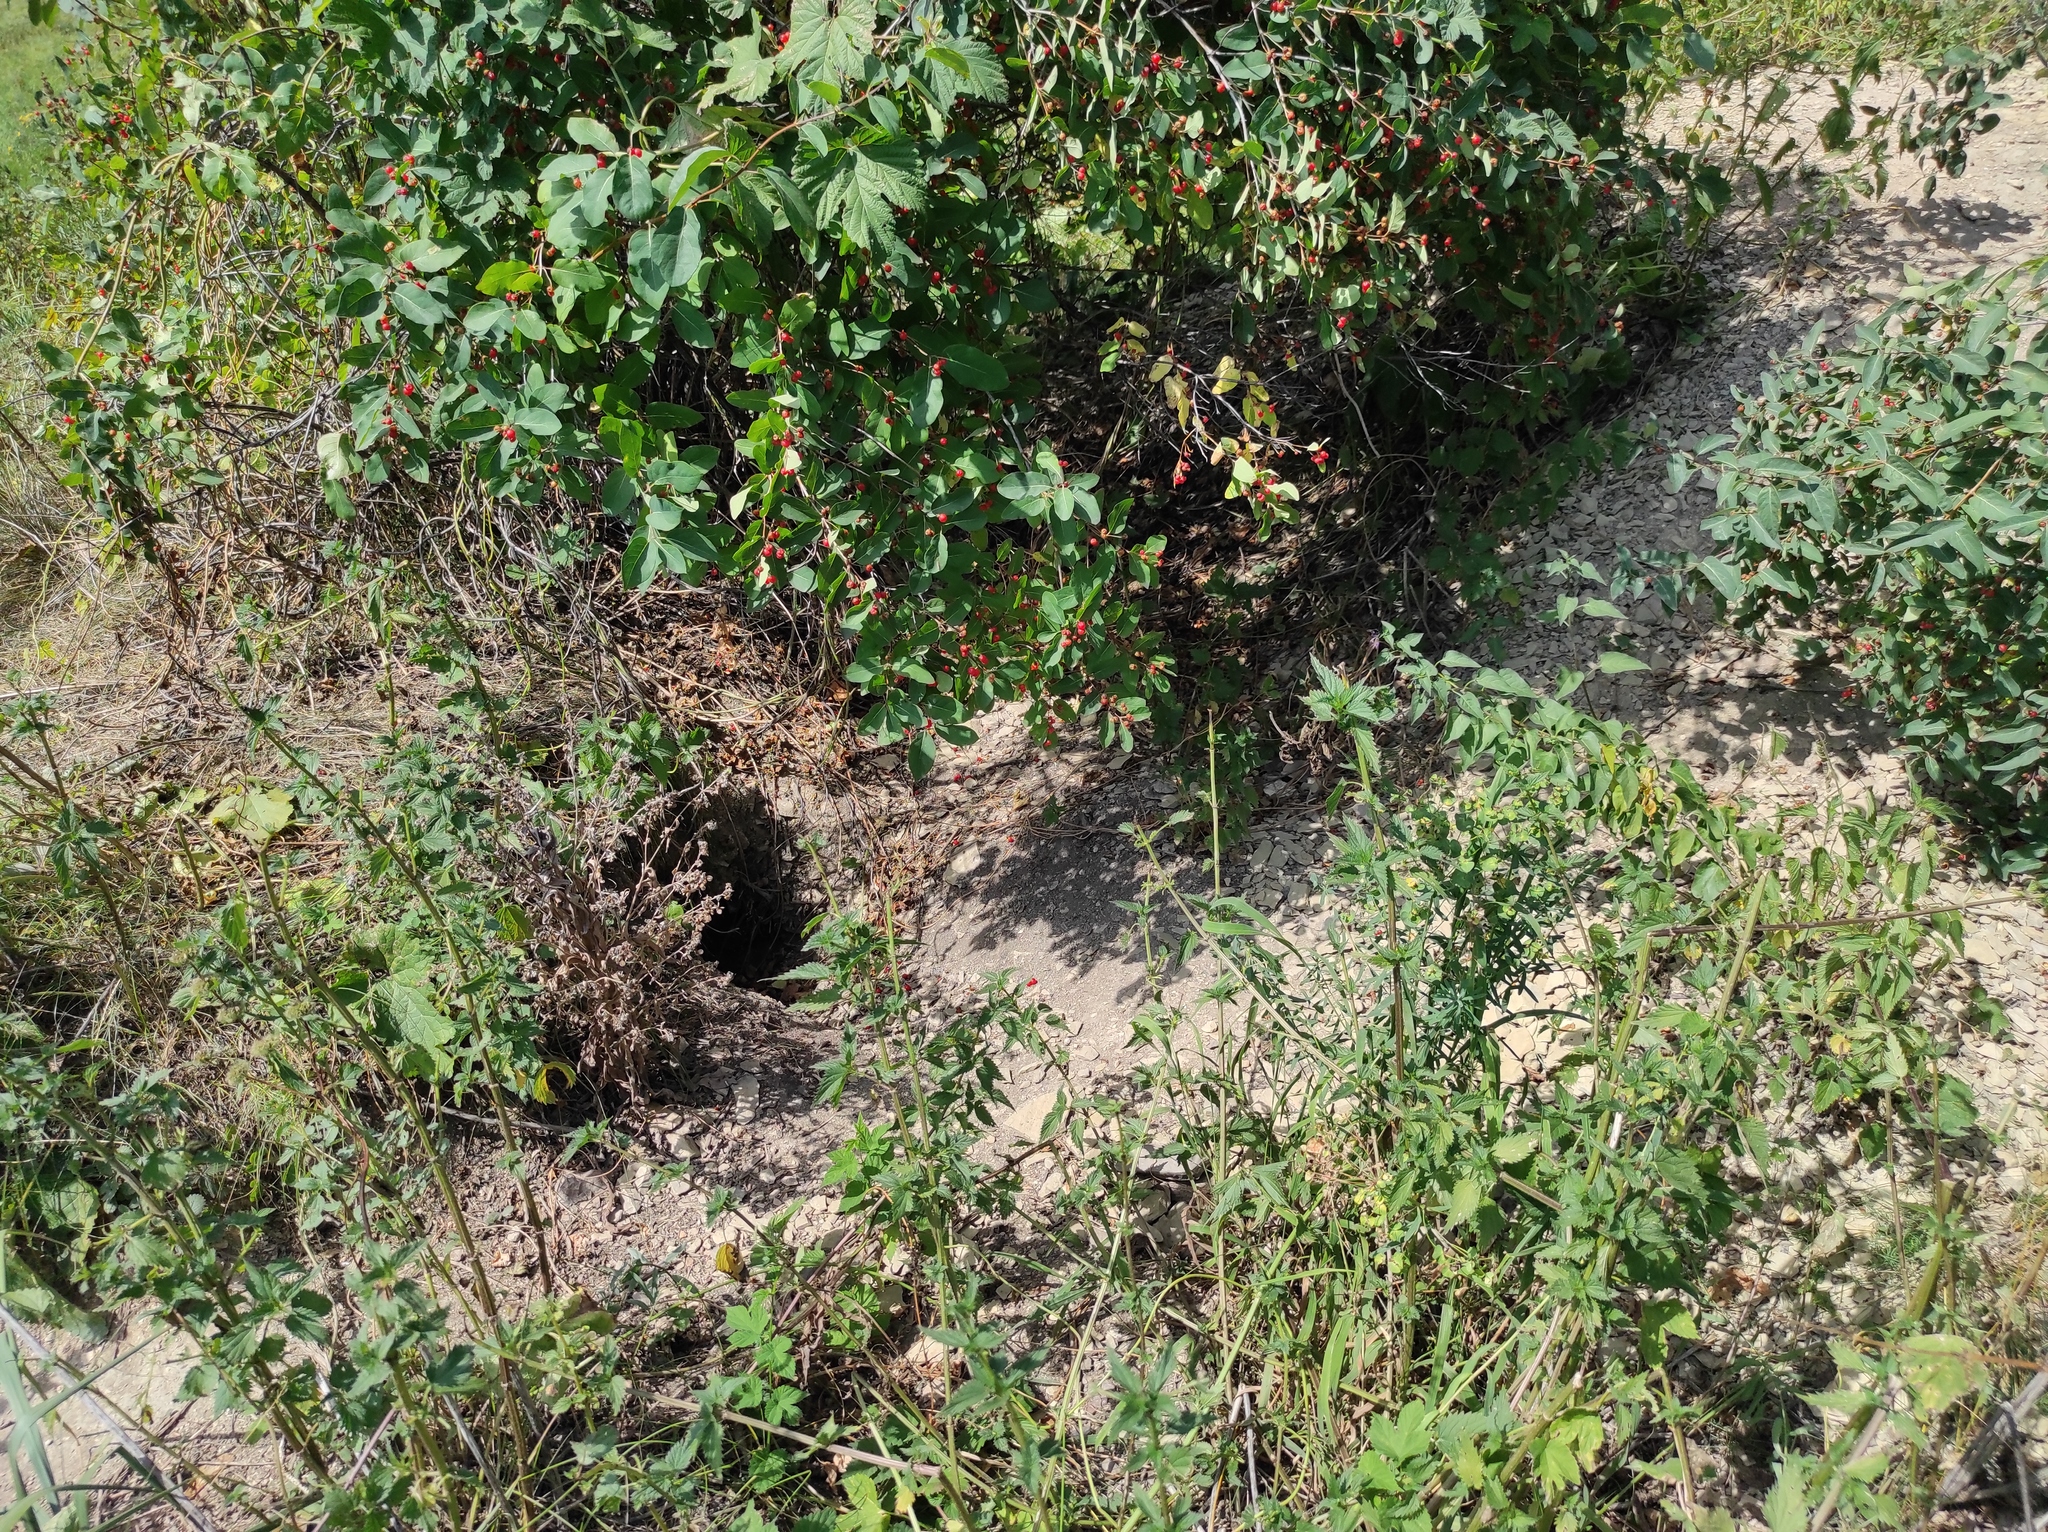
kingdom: Plantae
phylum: Tracheophyta
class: Magnoliopsida
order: Dipsacales
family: Caprifoliaceae
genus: Lonicera
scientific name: Lonicera tatarica
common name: Tatarian honeysuckle
